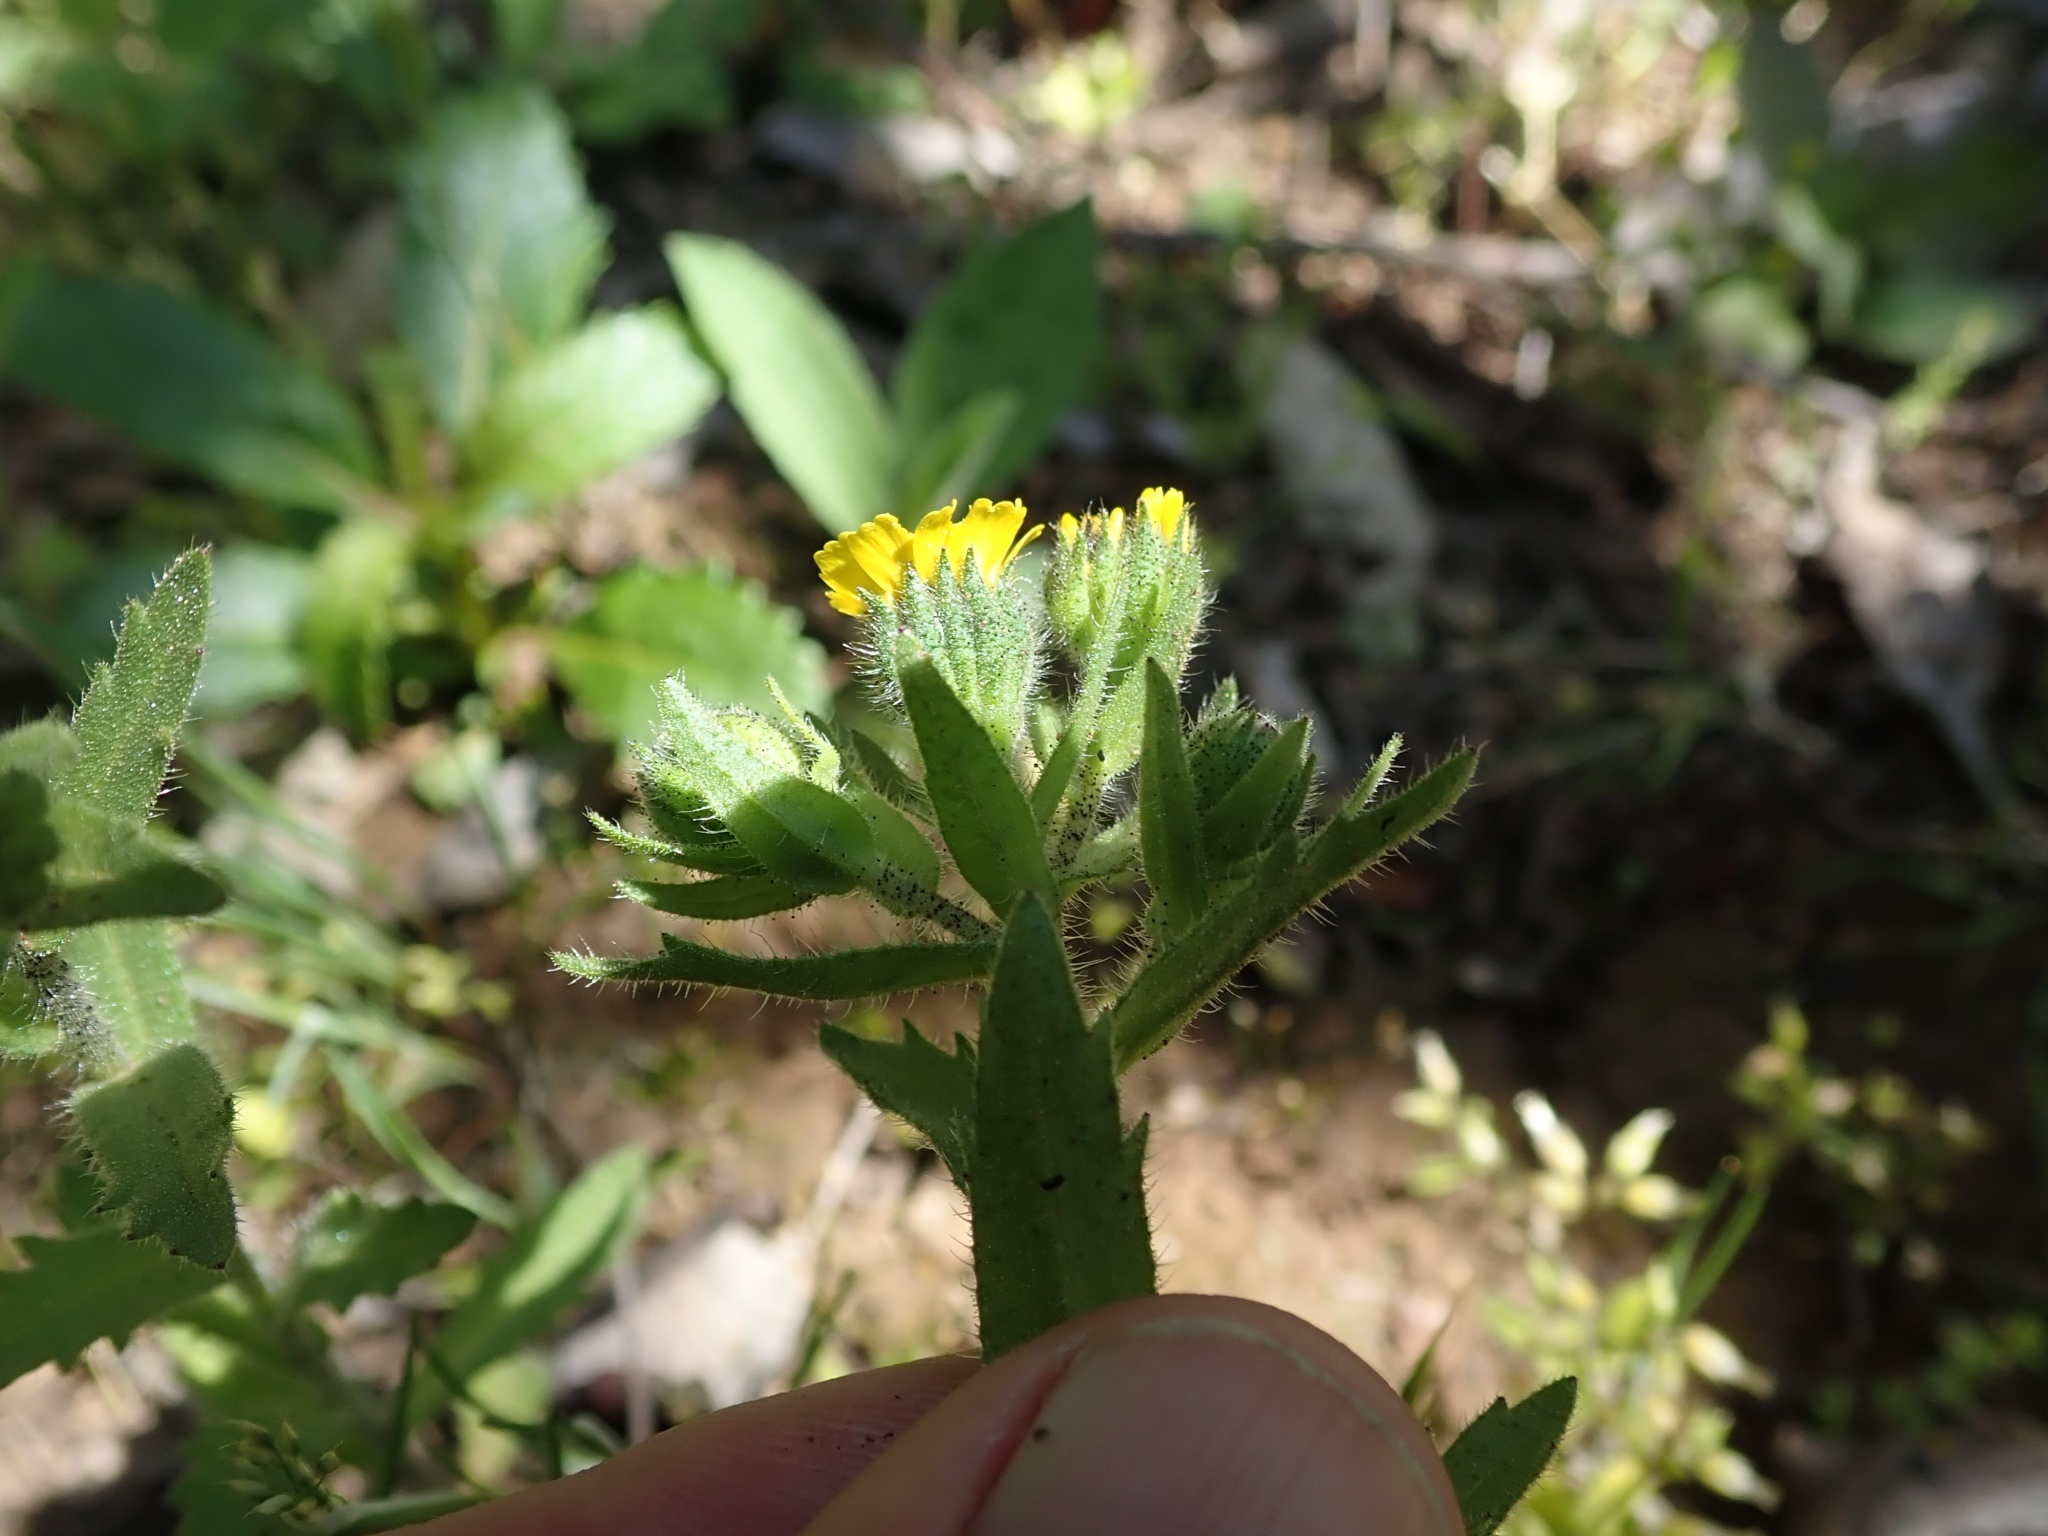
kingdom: Plantae
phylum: Tracheophyta
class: Magnoliopsida
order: Asterales
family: Asteraceae
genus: Layia
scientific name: Layia hieracioides
